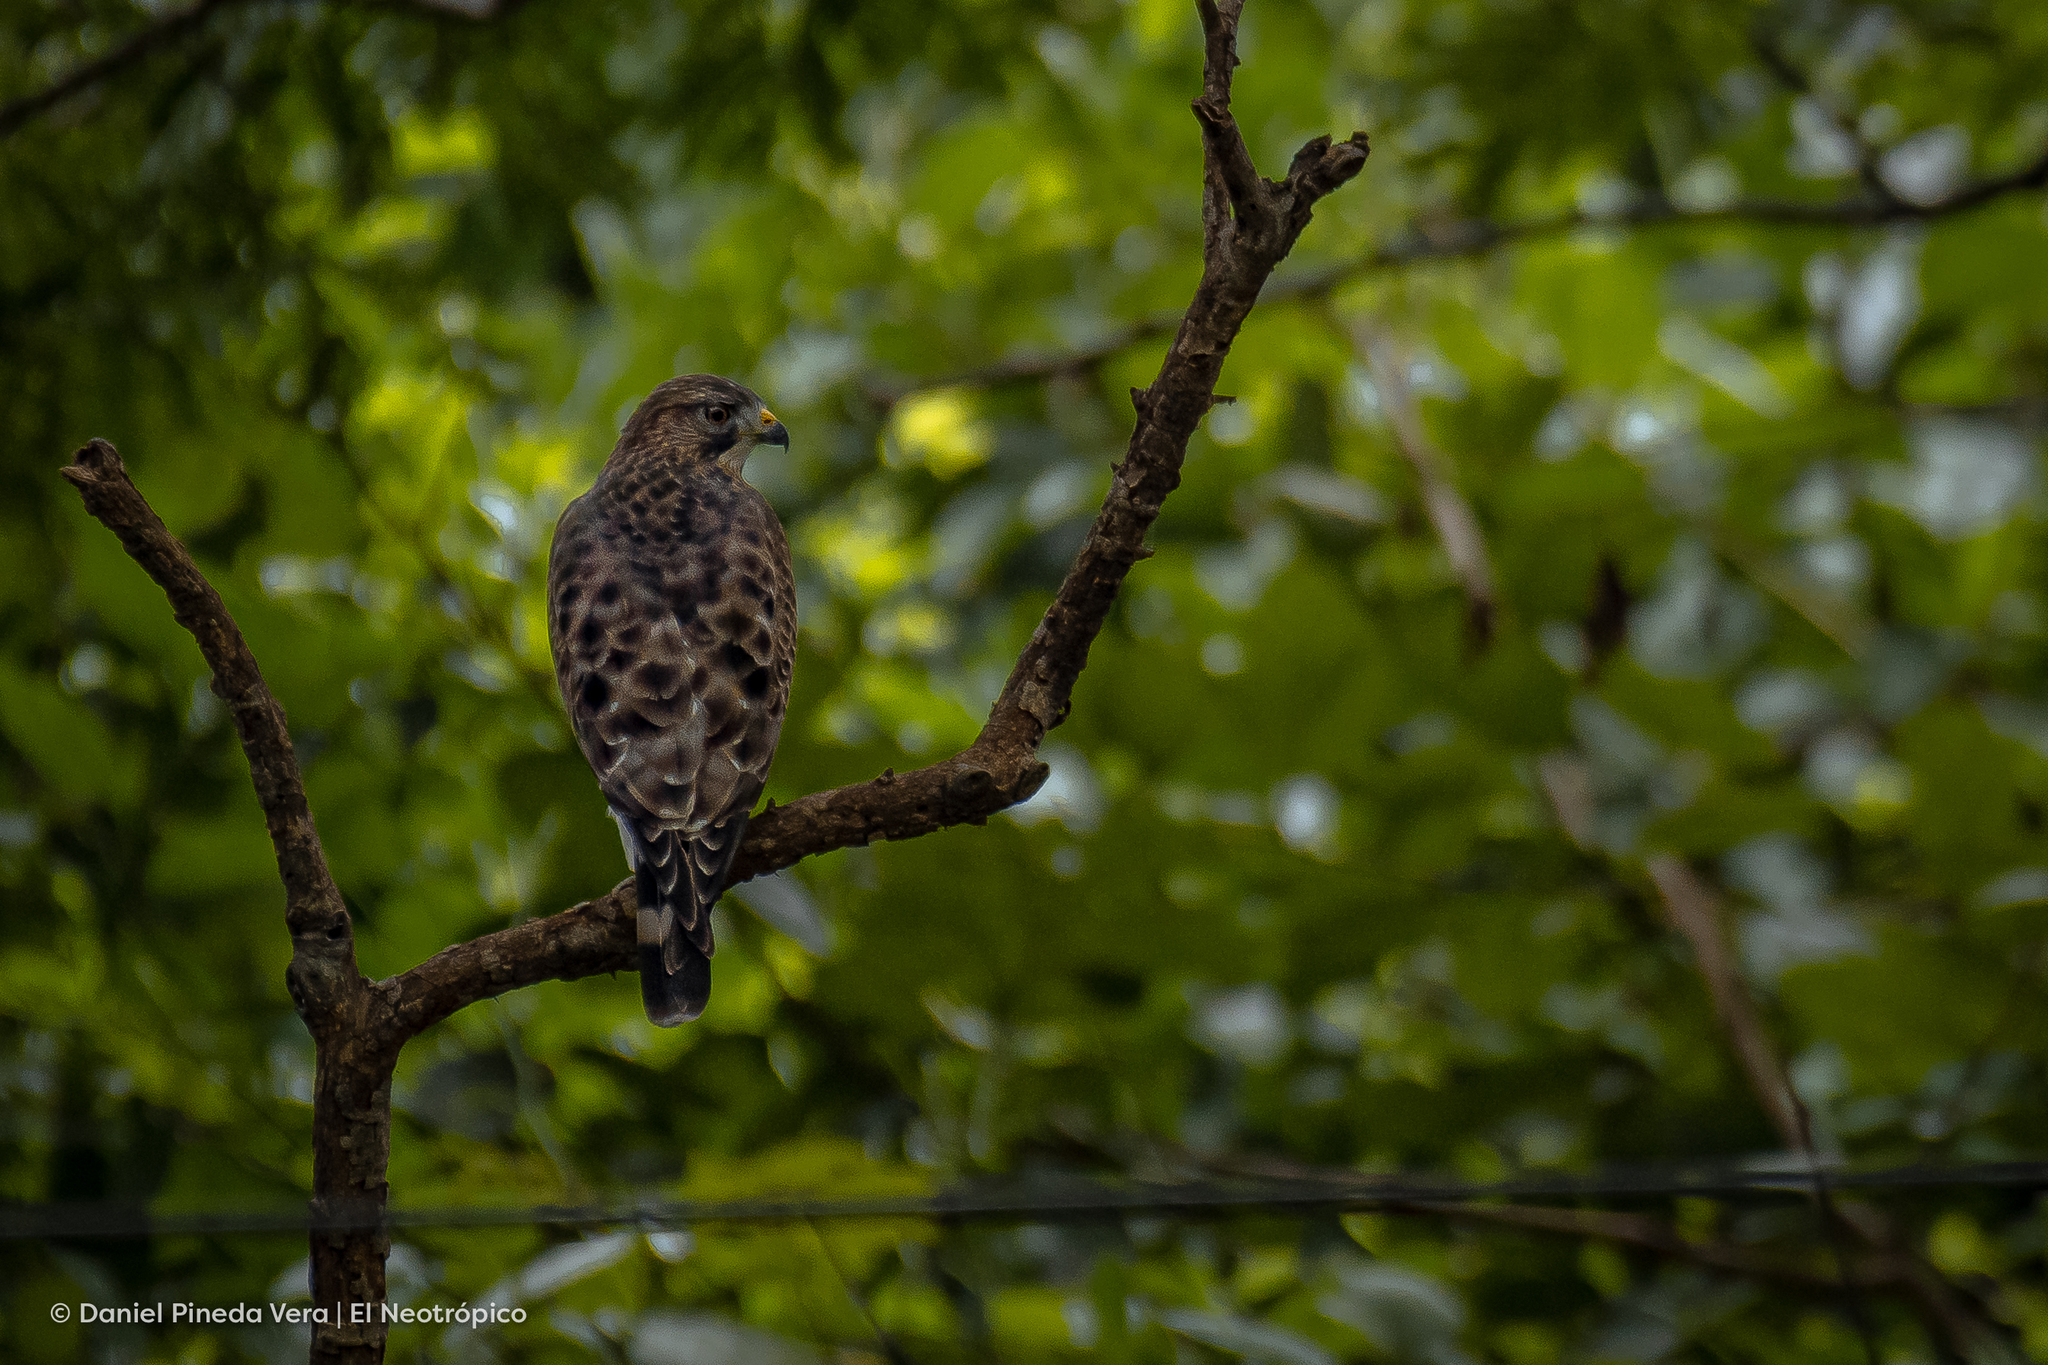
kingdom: Animalia
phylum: Chordata
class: Aves
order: Accipitriformes
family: Accipitridae
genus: Buteo
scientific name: Buteo platypterus
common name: Broad-winged hawk
